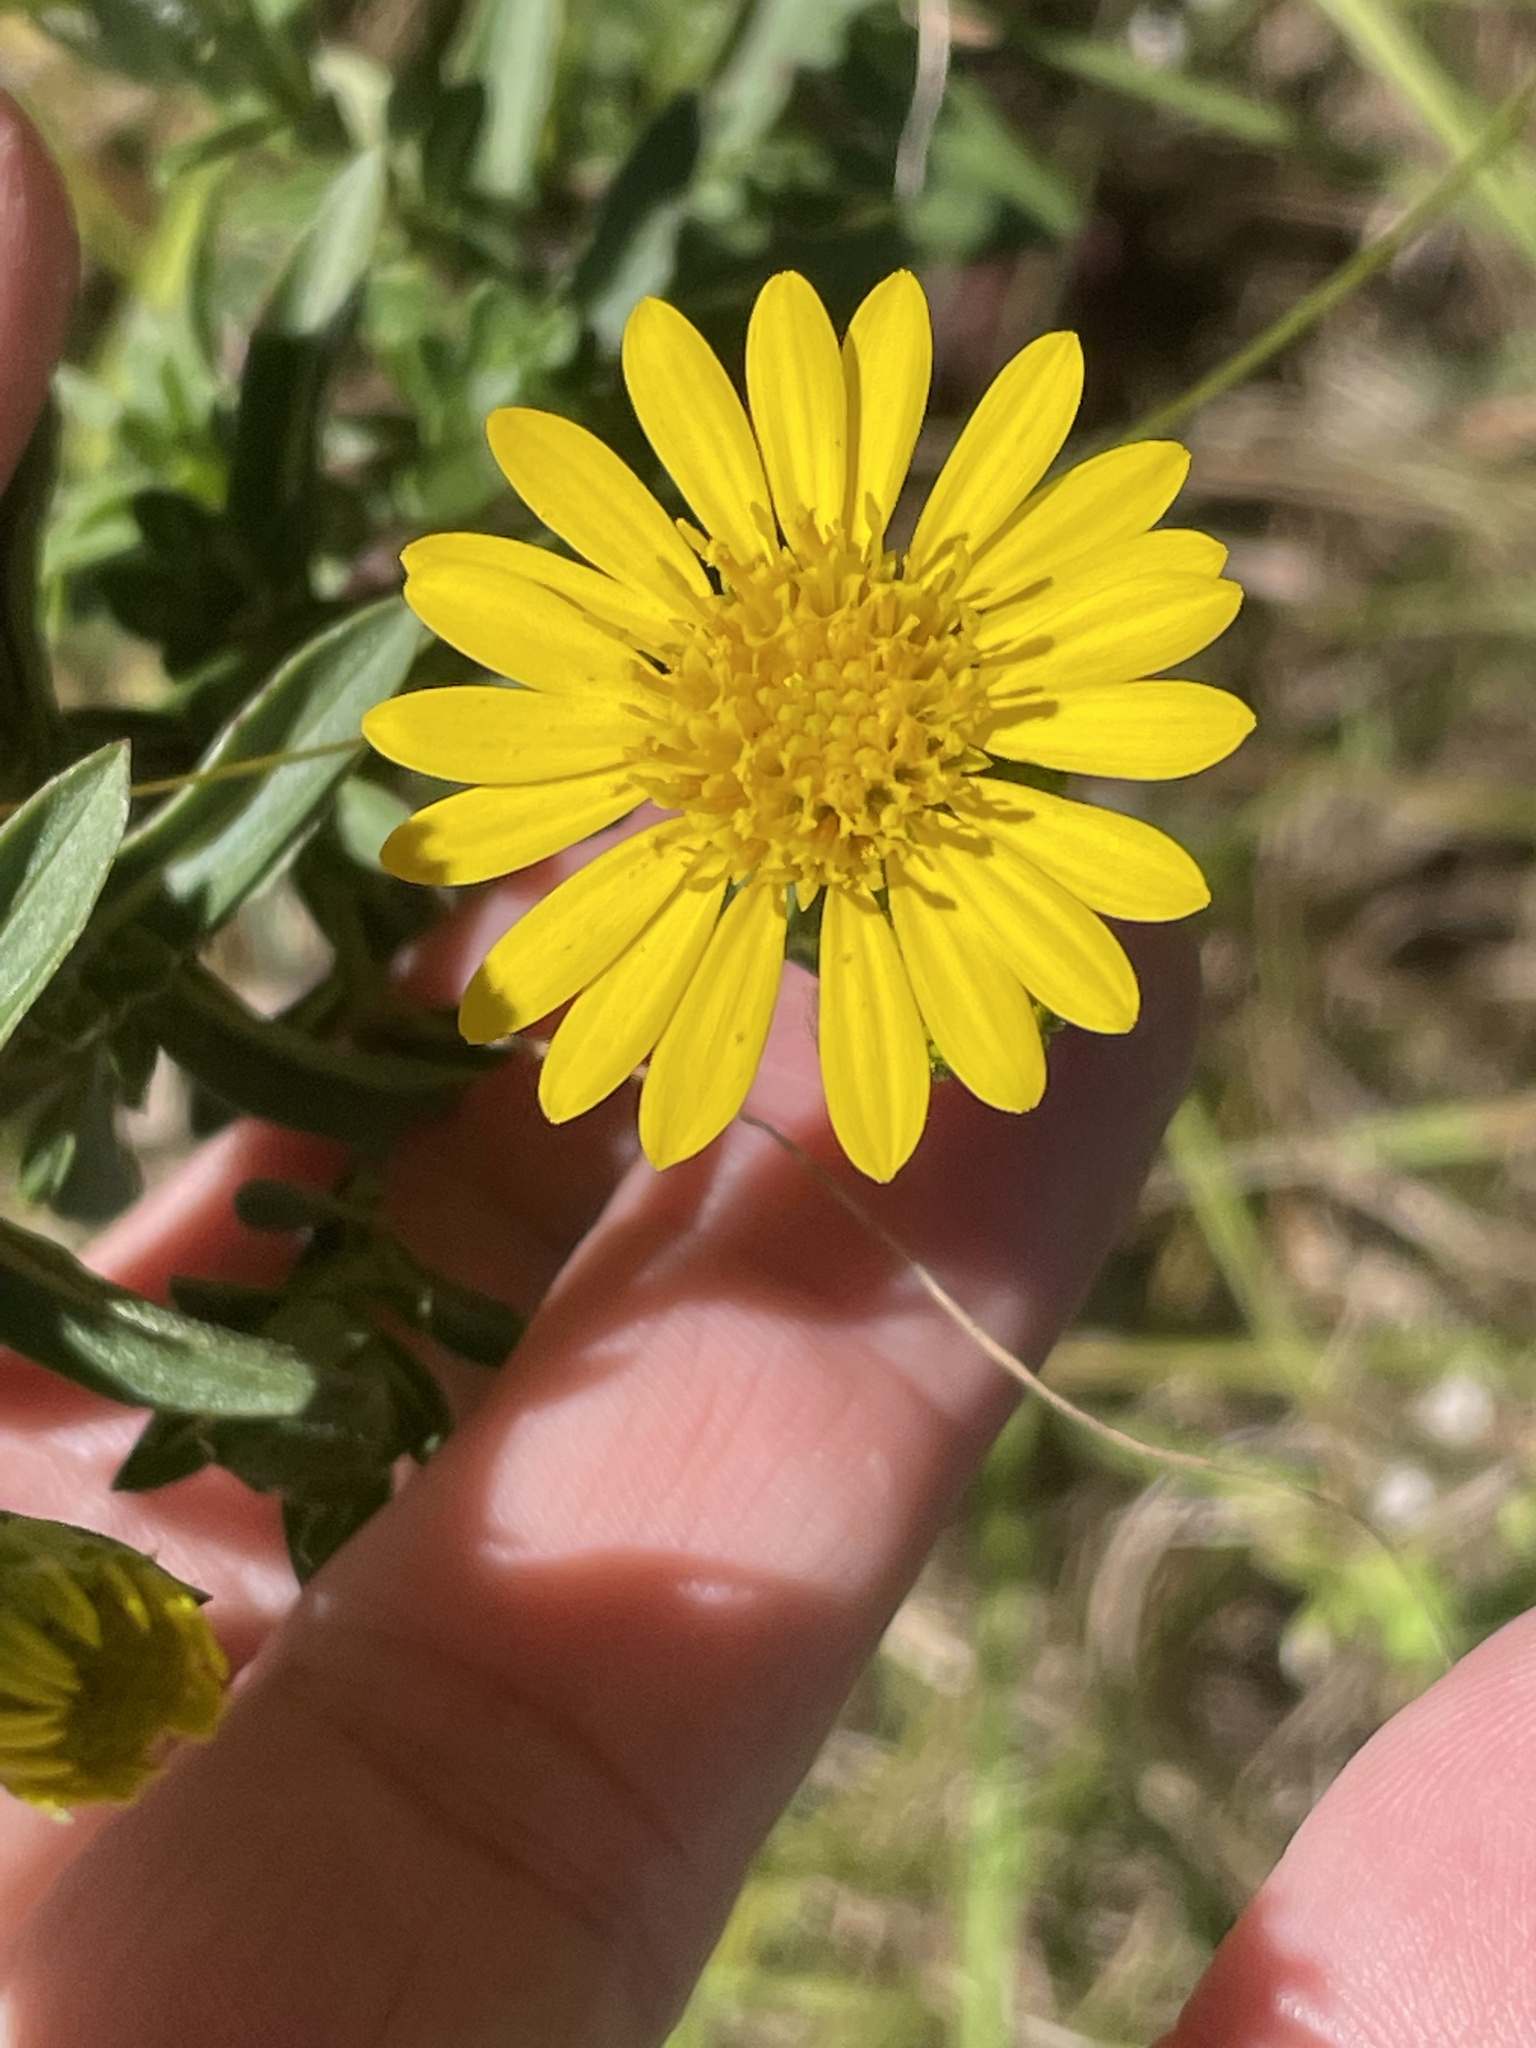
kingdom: Plantae
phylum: Tracheophyta
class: Magnoliopsida
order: Asterales
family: Asteraceae
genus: Chrysopsis
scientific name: Chrysopsis mariana
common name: Maryland golden-aster
